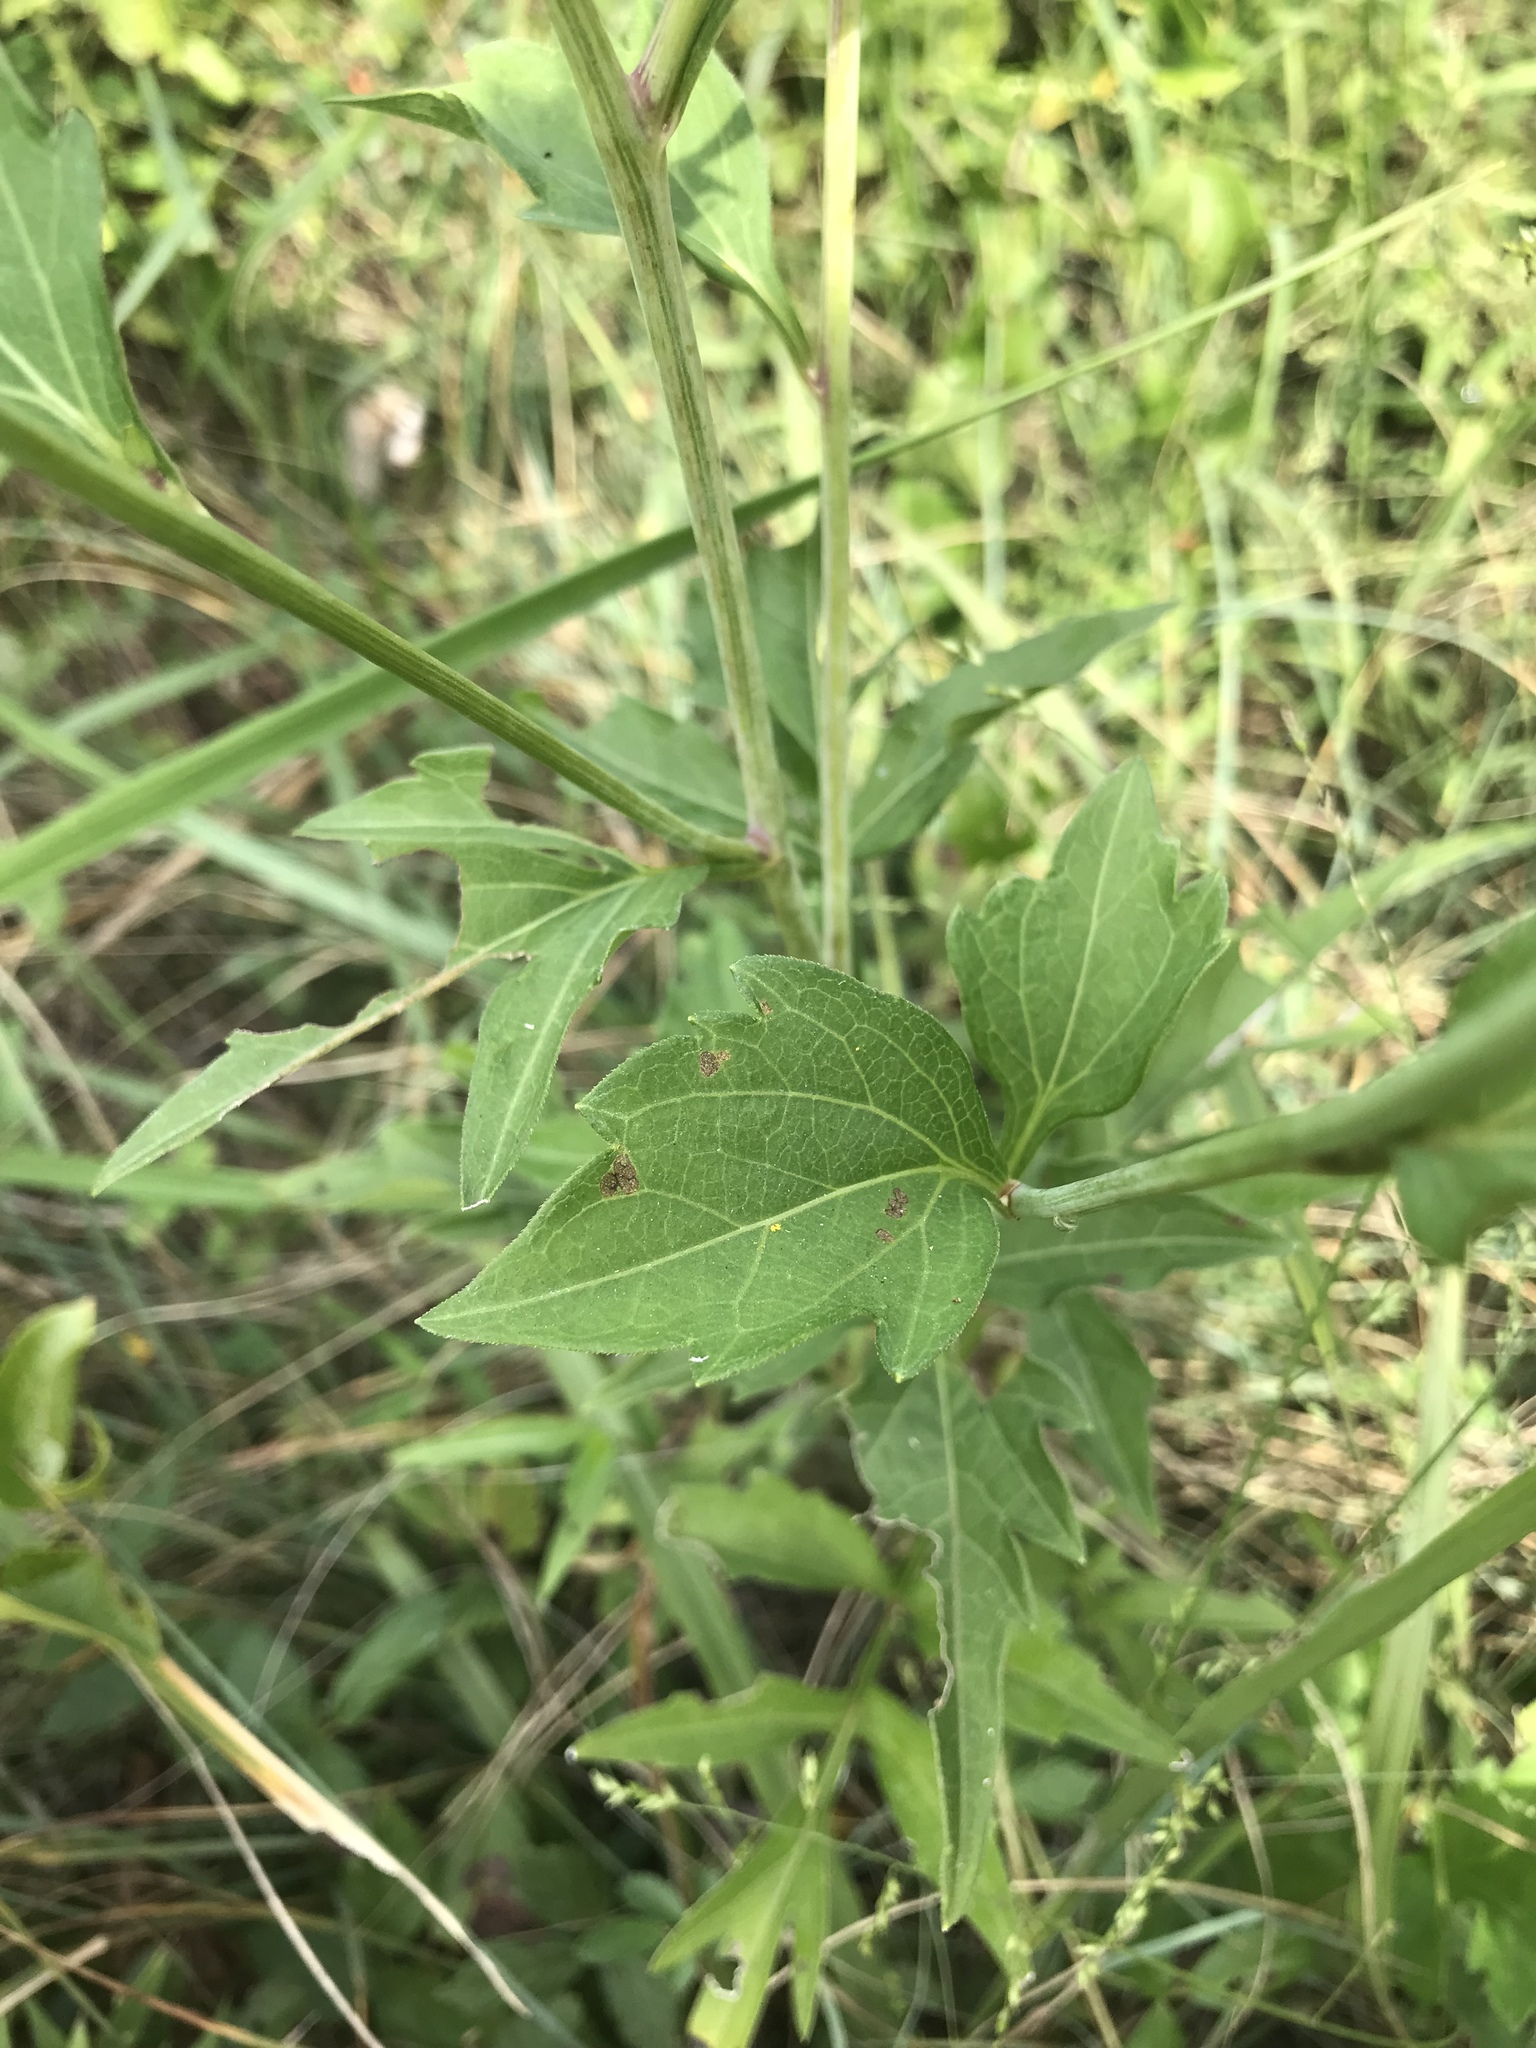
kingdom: Plantae
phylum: Tracheophyta
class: Magnoliopsida
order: Asterales
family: Asteraceae
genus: Rudbeckia
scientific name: Rudbeckia laciniata
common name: Coneflower
